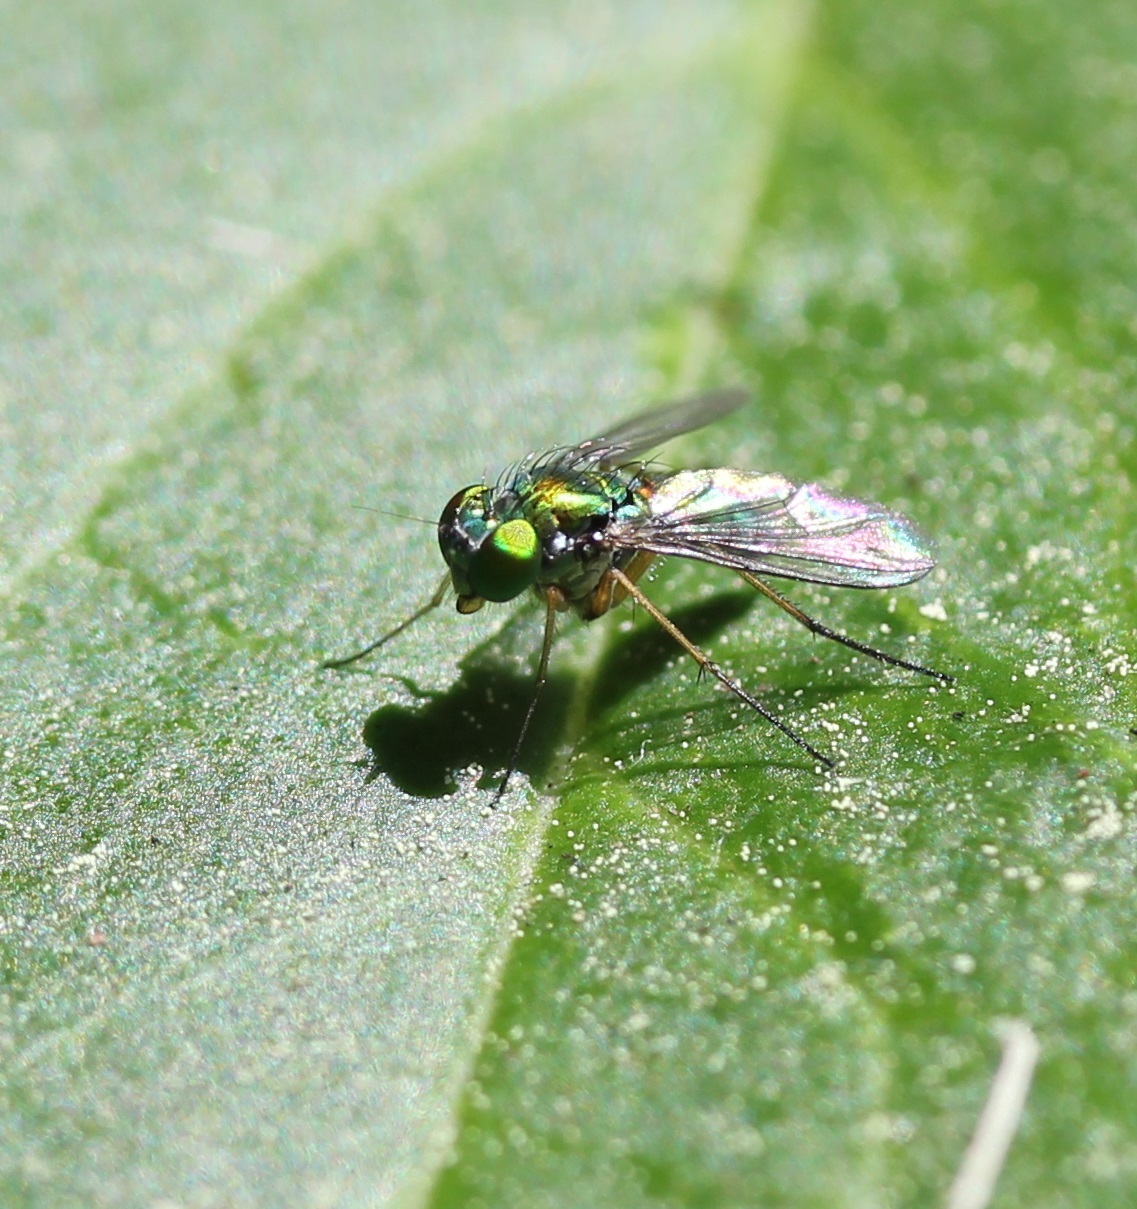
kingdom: Animalia
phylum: Arthropoda
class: Insecta
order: Diptera
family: Dolichopodidae
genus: Condylostylus
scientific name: Condylostylus
